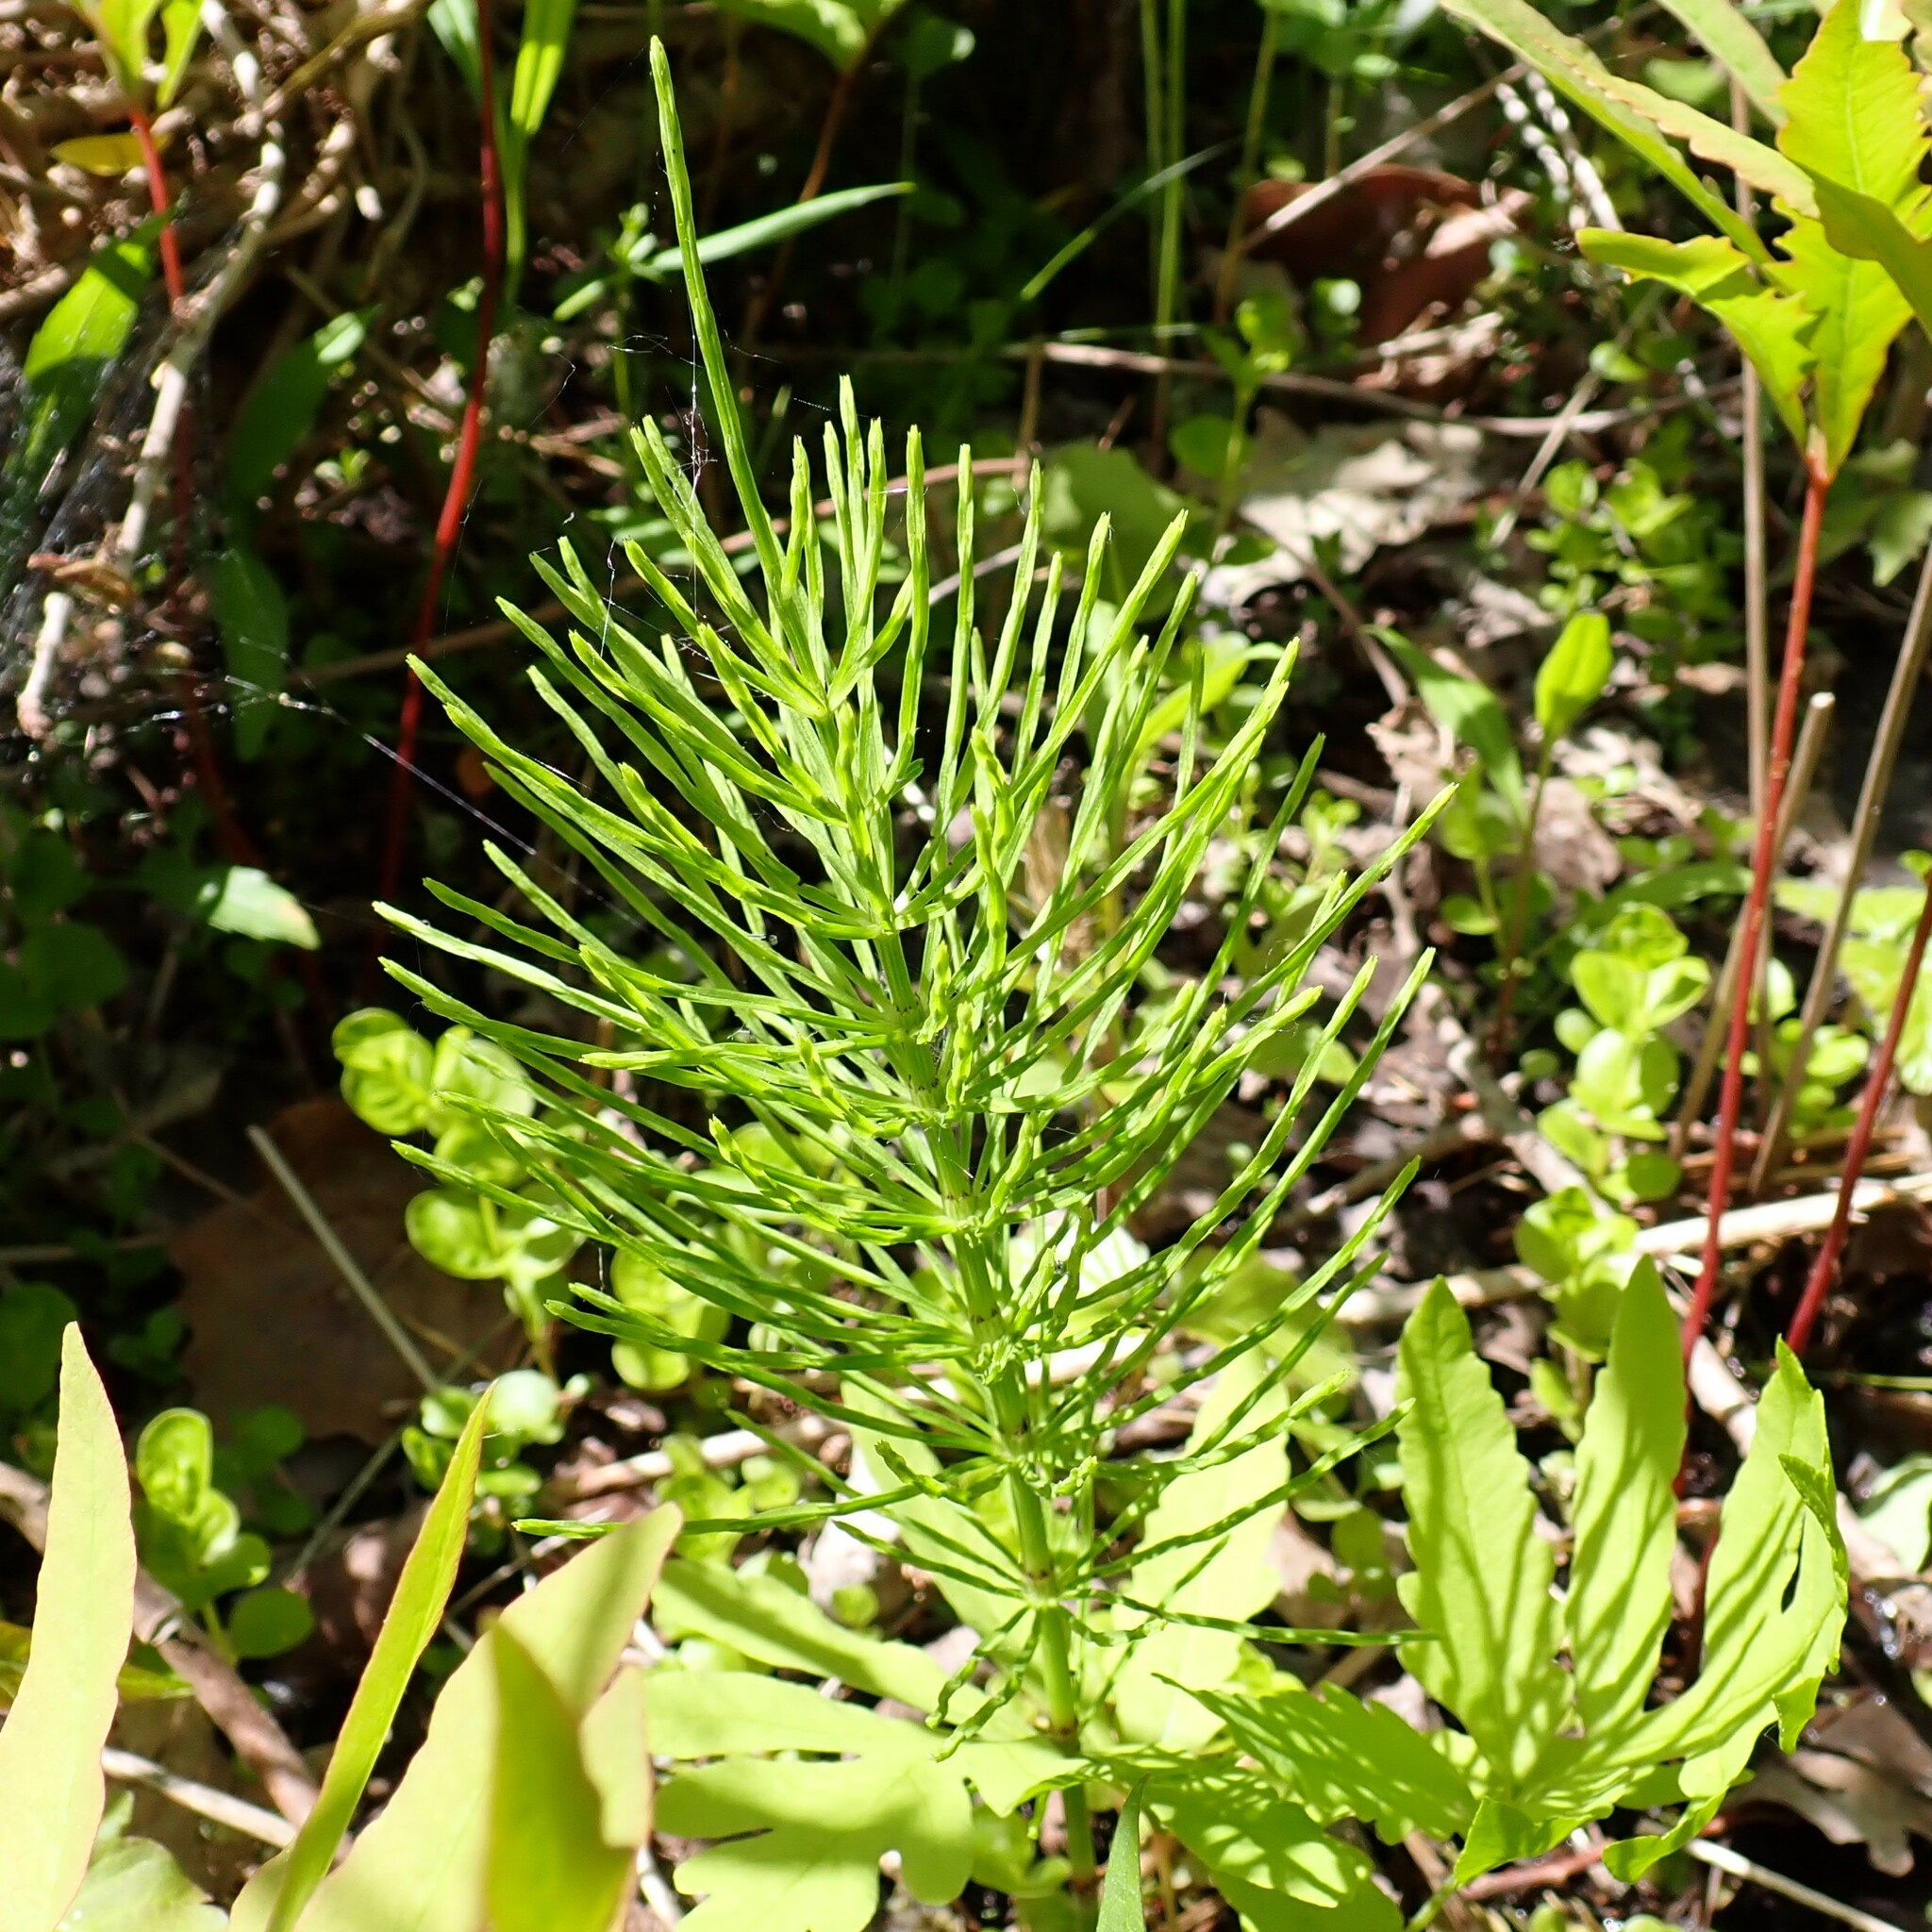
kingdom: Plantae
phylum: Tracheophyta
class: Polypodiopsida
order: Equisetales
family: Equisetaceae
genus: Equisetum
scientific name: Equisetum arvense
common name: Field horsetail
